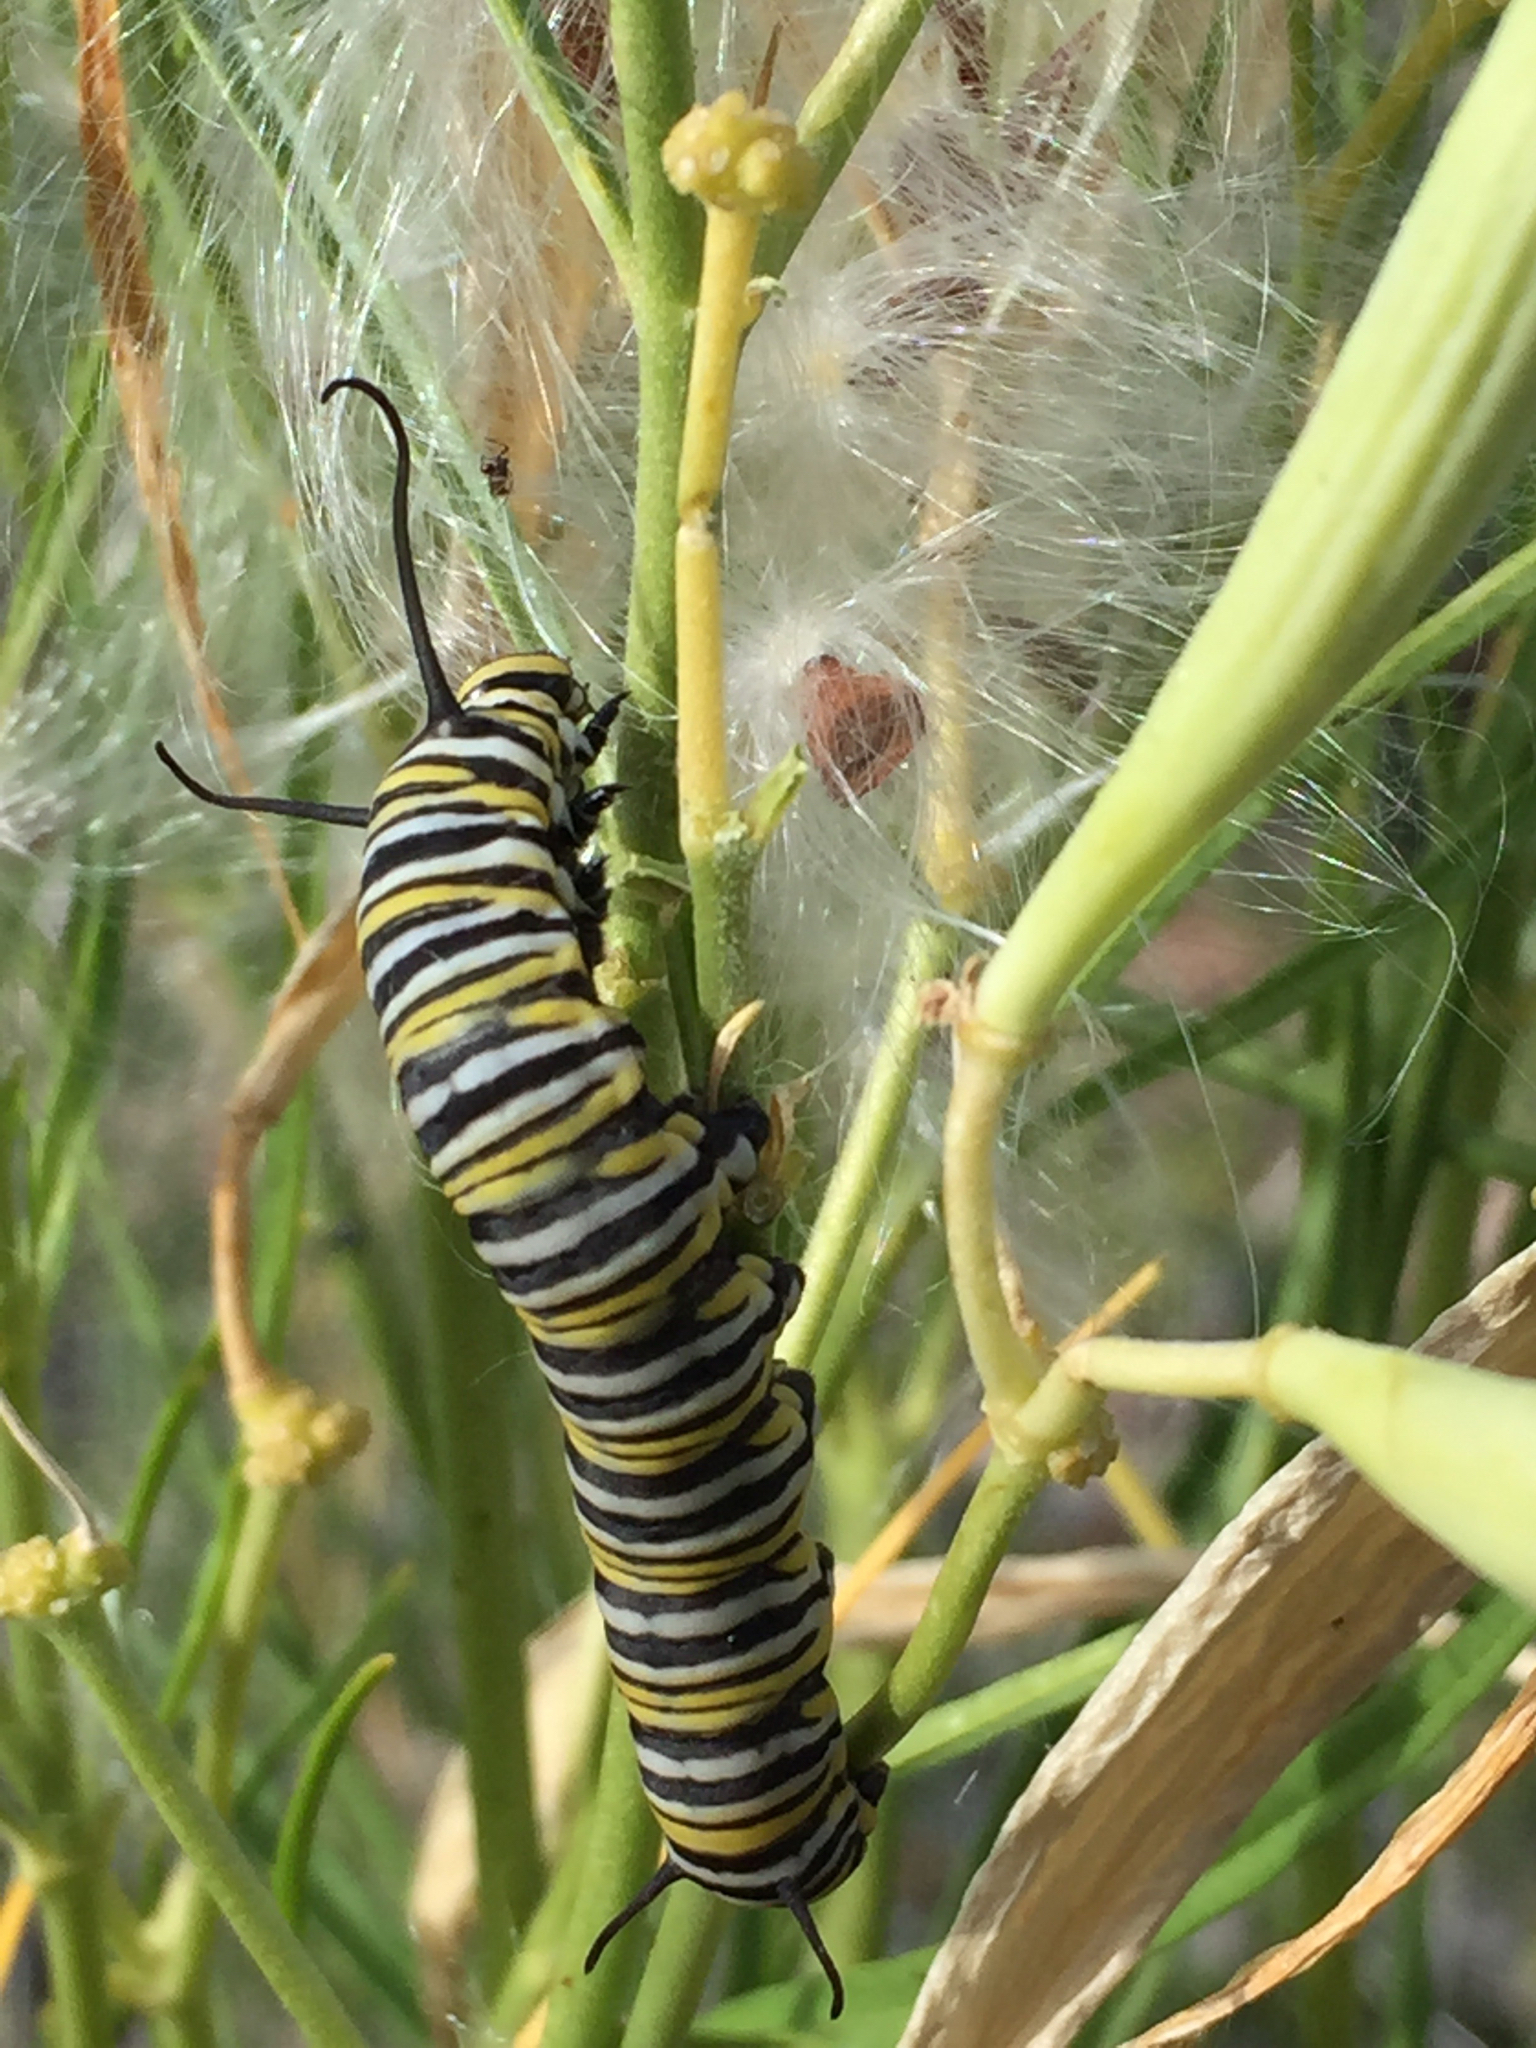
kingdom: Animalia
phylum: Arthropoda
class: Insecta
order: Lepidoptera
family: Nymphalidae
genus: Danaus
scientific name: Danaus plexippus
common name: Monarch
